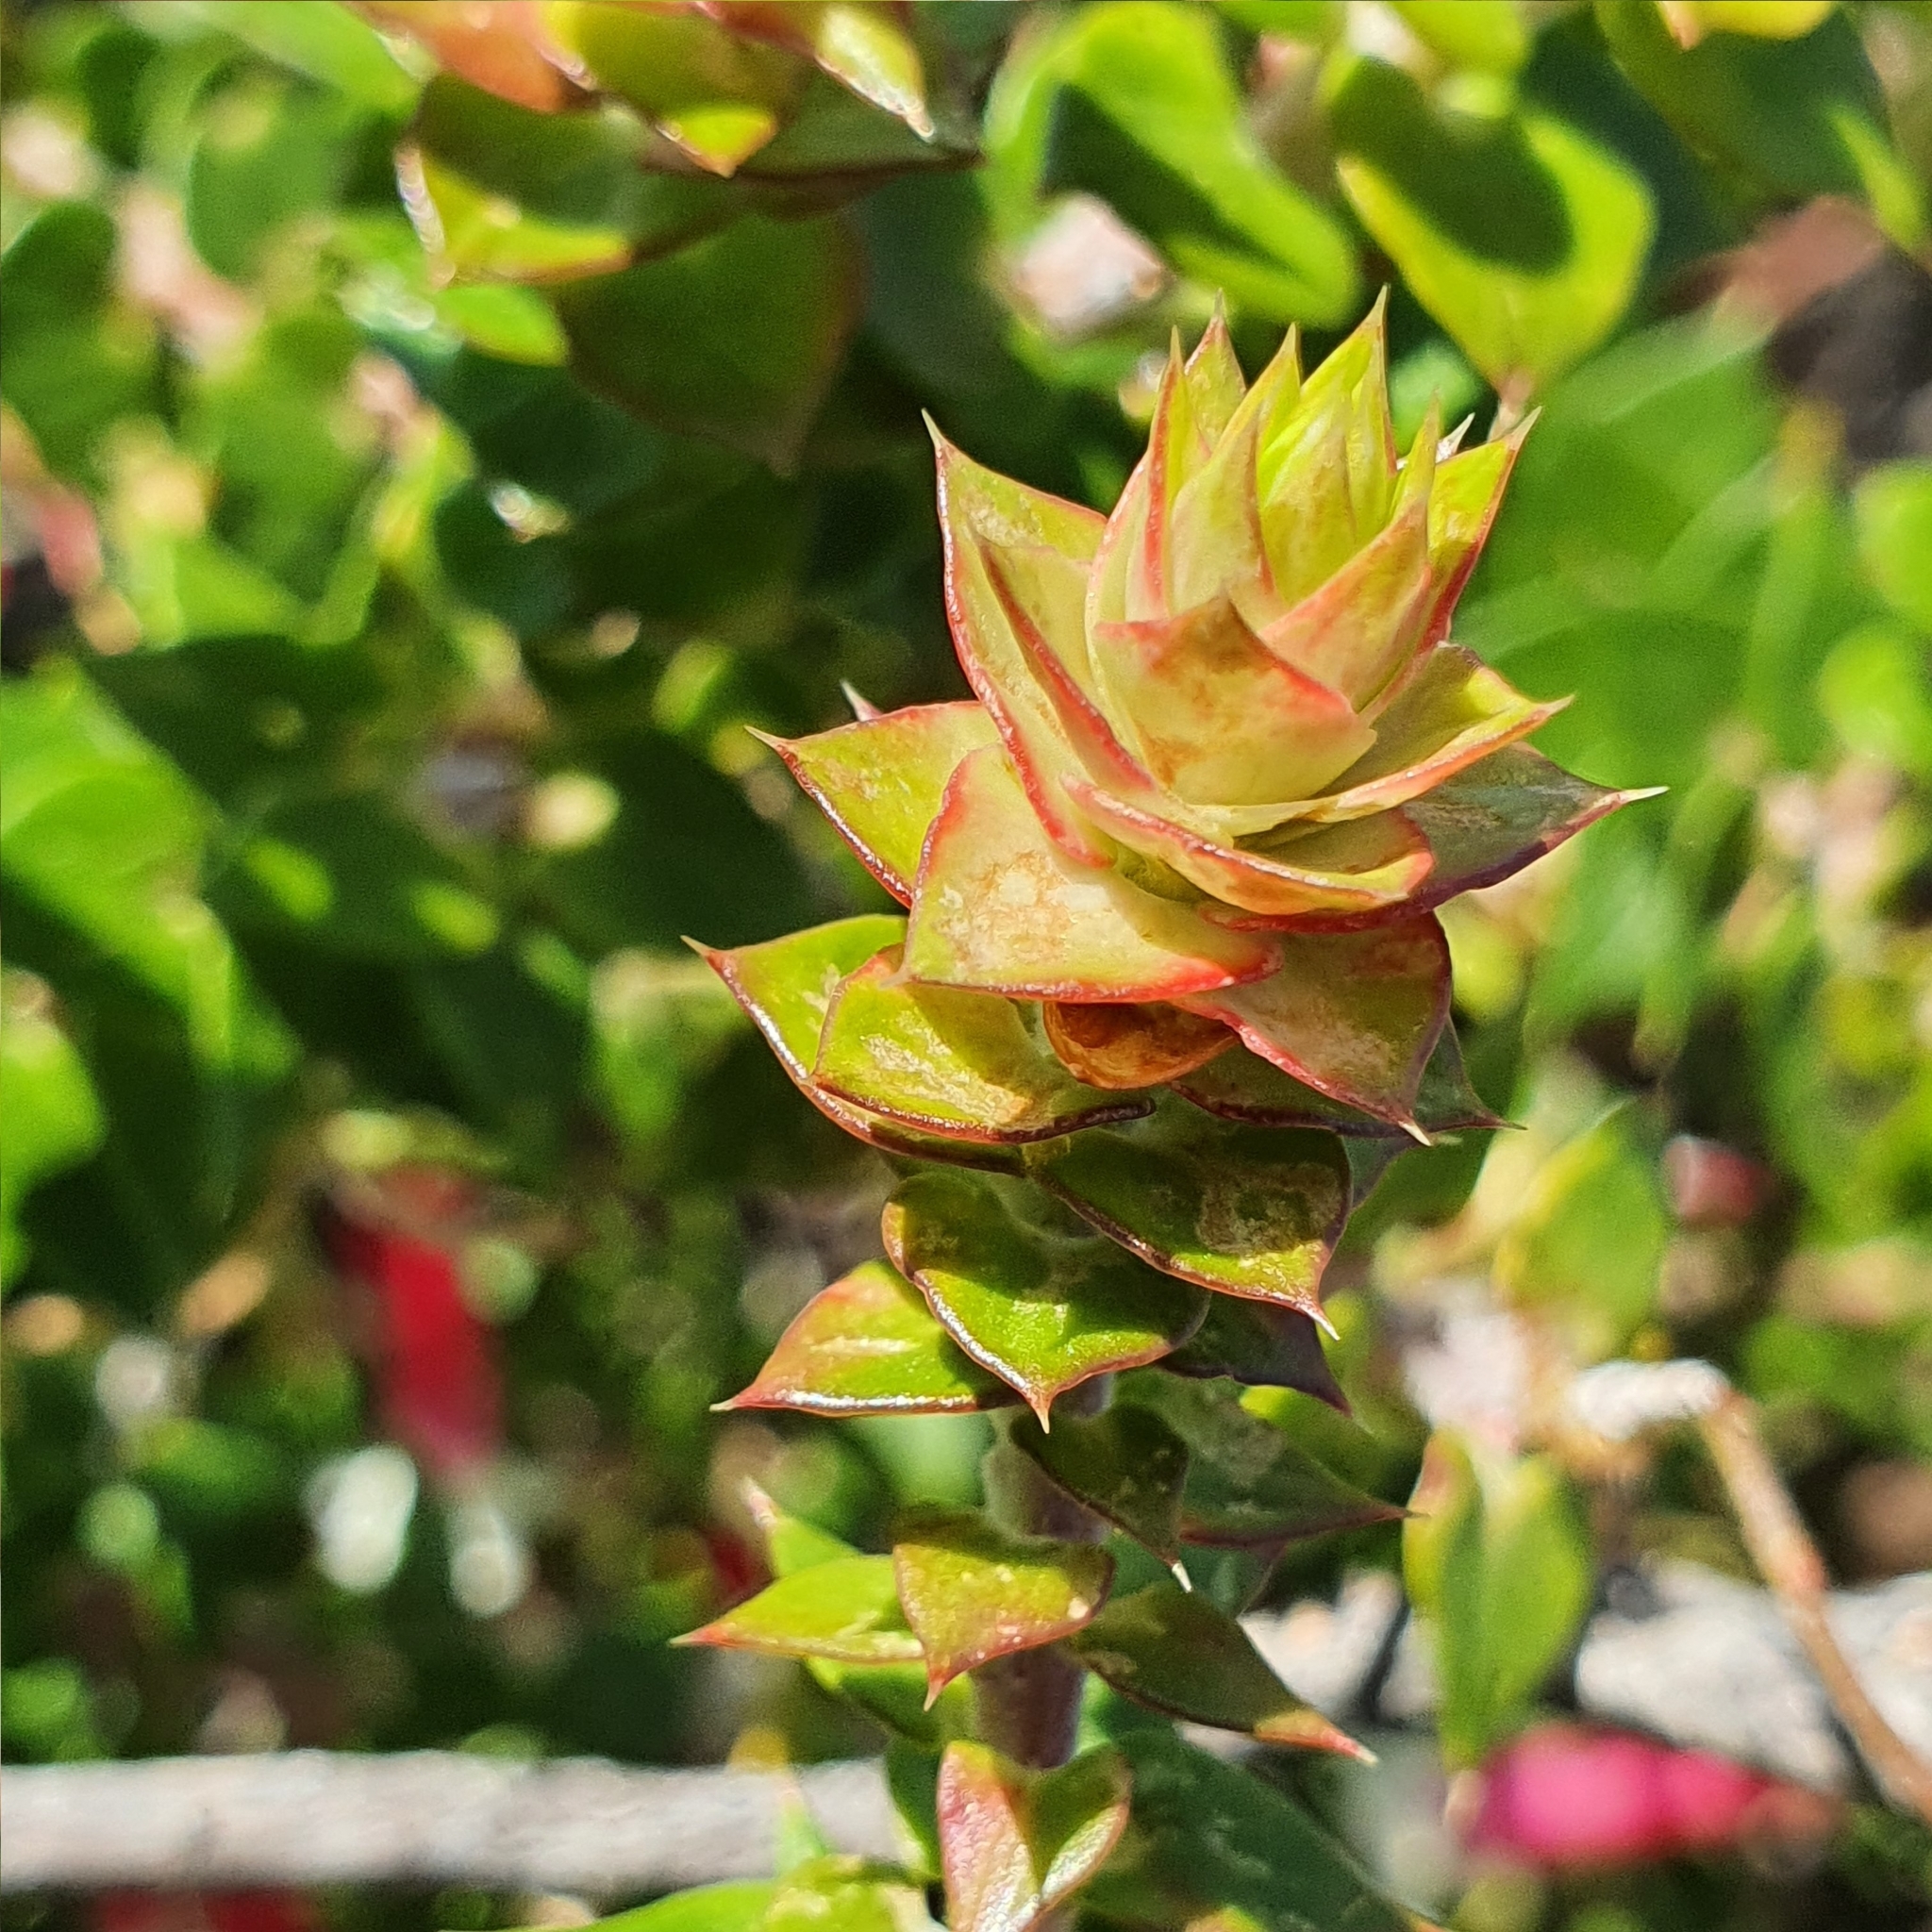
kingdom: Plantae
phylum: Tracheophyta
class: Magnoliopsida
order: Ericales
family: Ericaceae
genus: Epacris
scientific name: Epacris longiflora
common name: Fuchsia-heath
